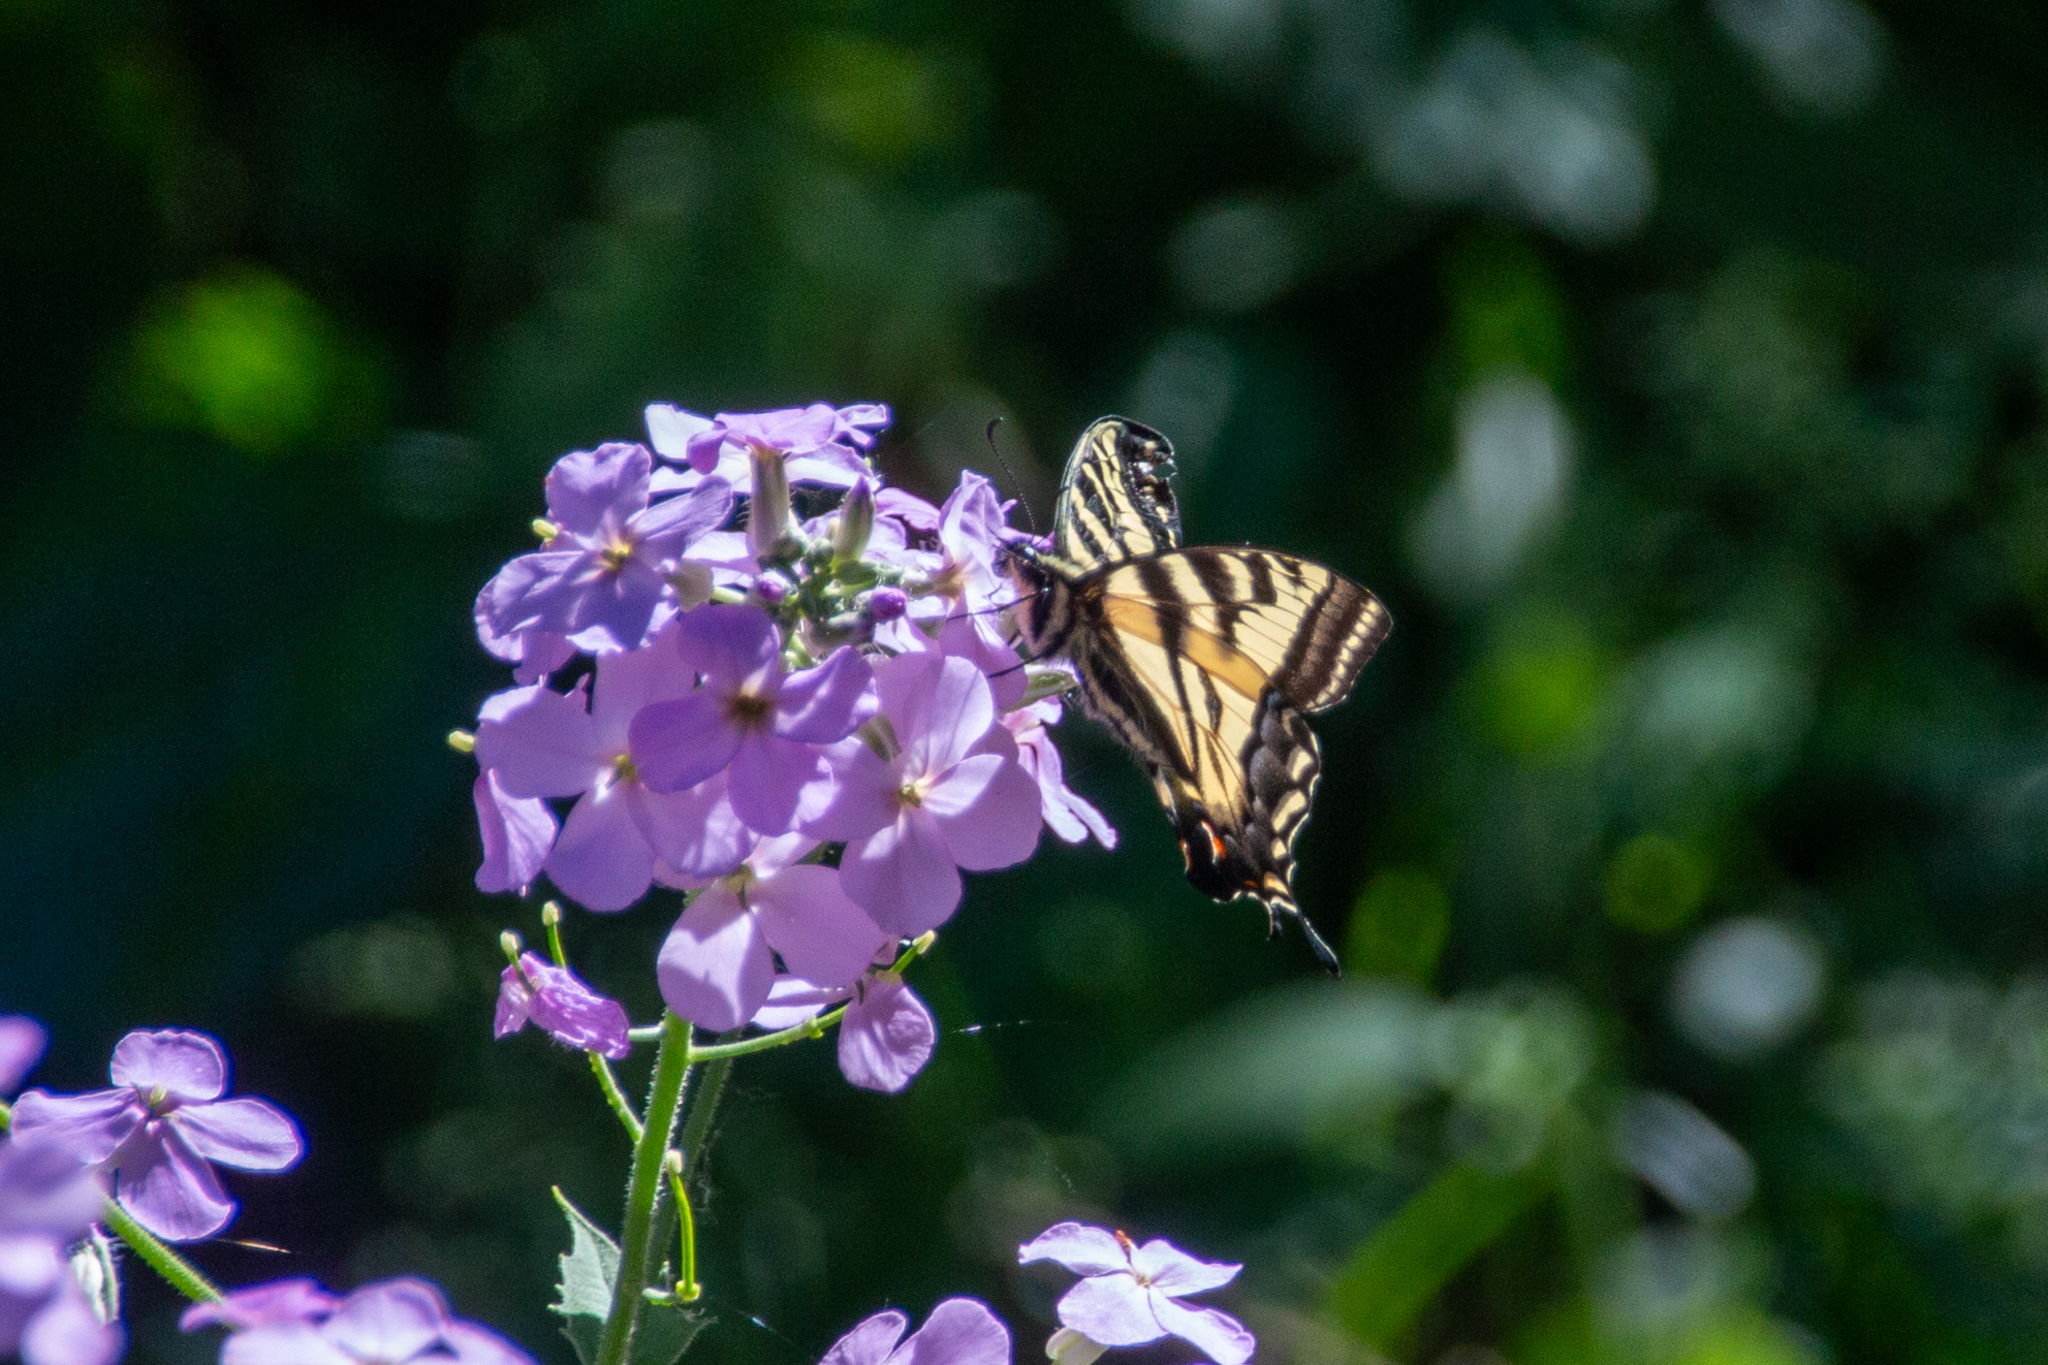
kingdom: Animalia
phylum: Arthropoda
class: Insecta
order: Lepidoptera
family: Papilionidae
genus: Papilio
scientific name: Papilio rutulus
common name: Western tiger swallowtail
